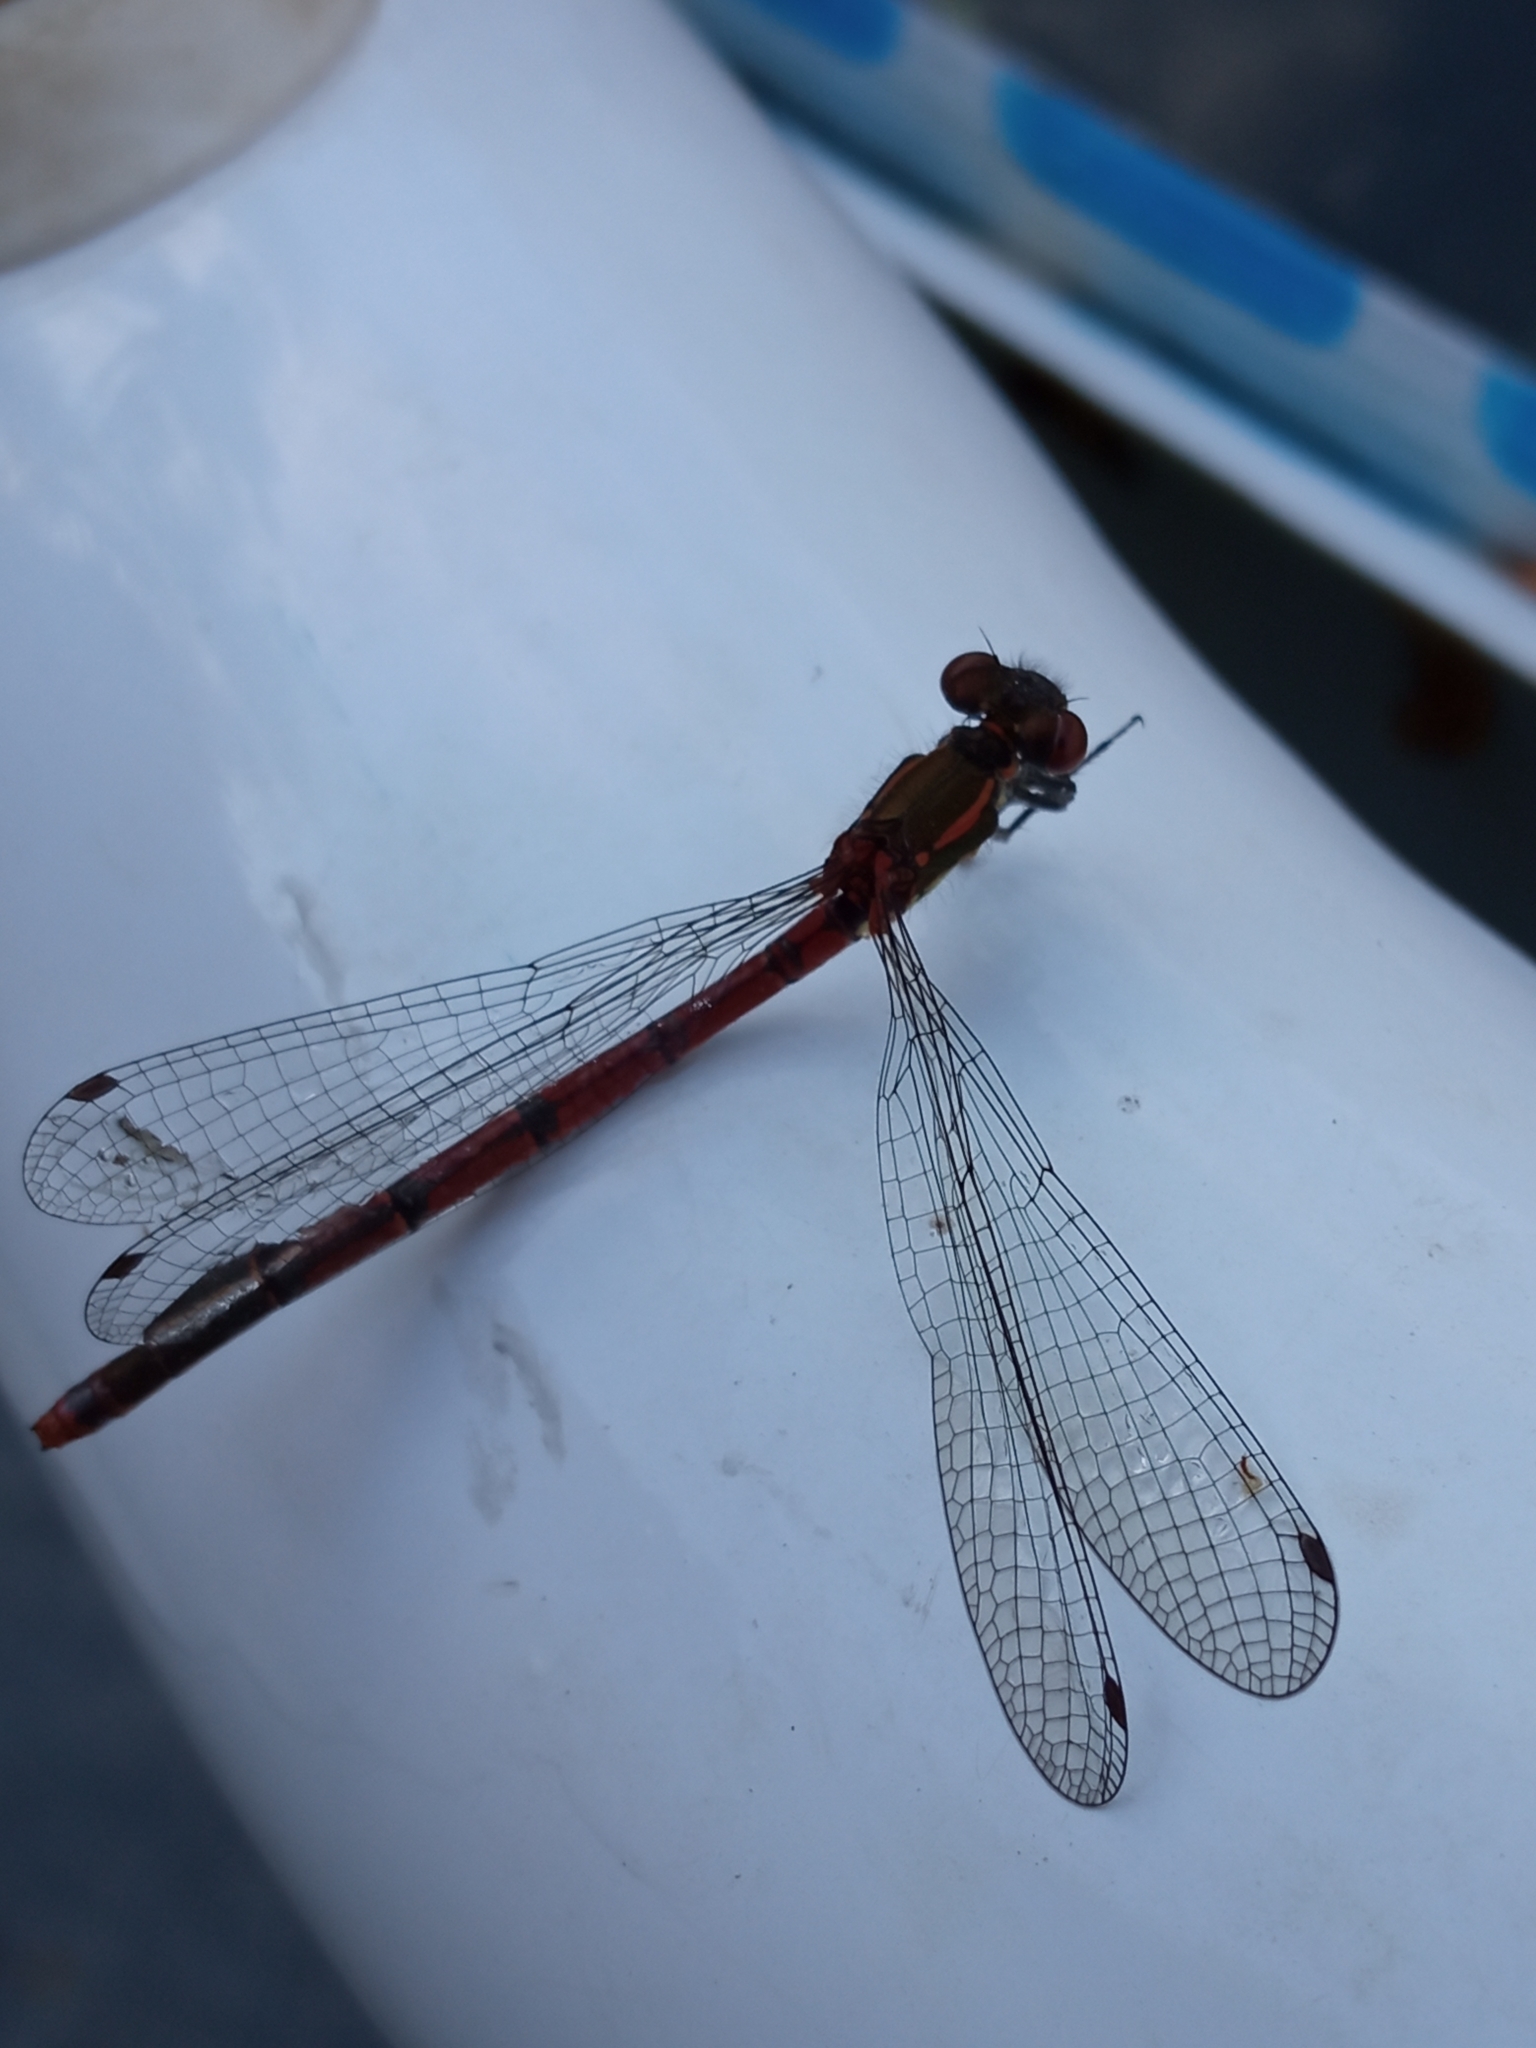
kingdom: Animalia
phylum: Arthropoda
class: Insecta
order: Odonata
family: Coenagrionidae
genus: Pyrrhosoma
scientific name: Pyrrhosoma nymphula
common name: Large red damsel
